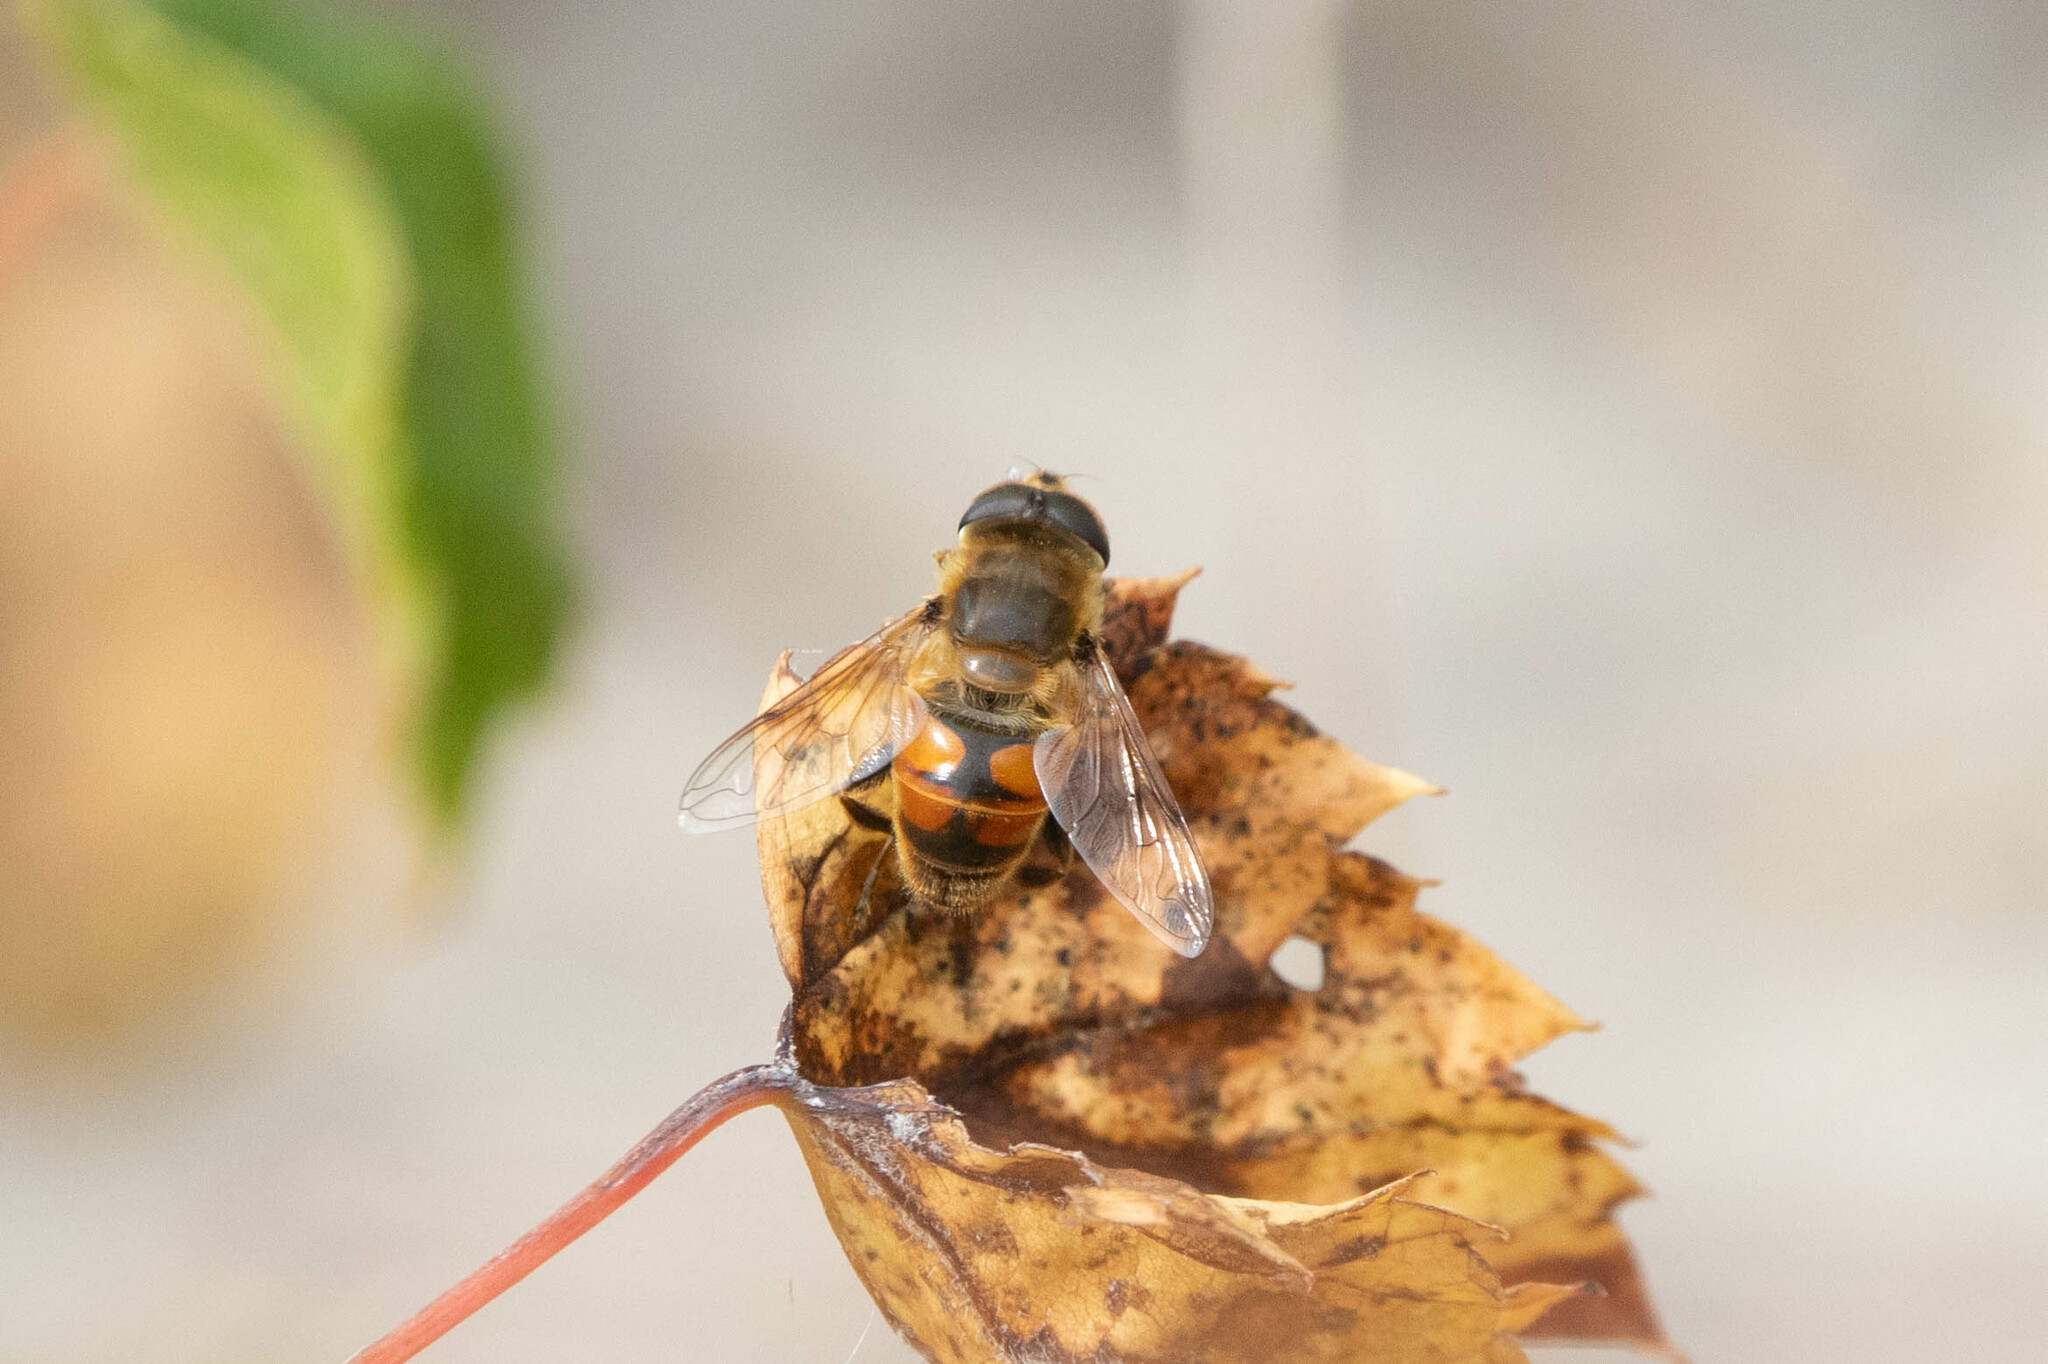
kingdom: Animalia
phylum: Arthropoda
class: Insecta
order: Diptera
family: Syrphidae
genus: Eristalis
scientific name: Eristalis tenax
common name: Drone fly
